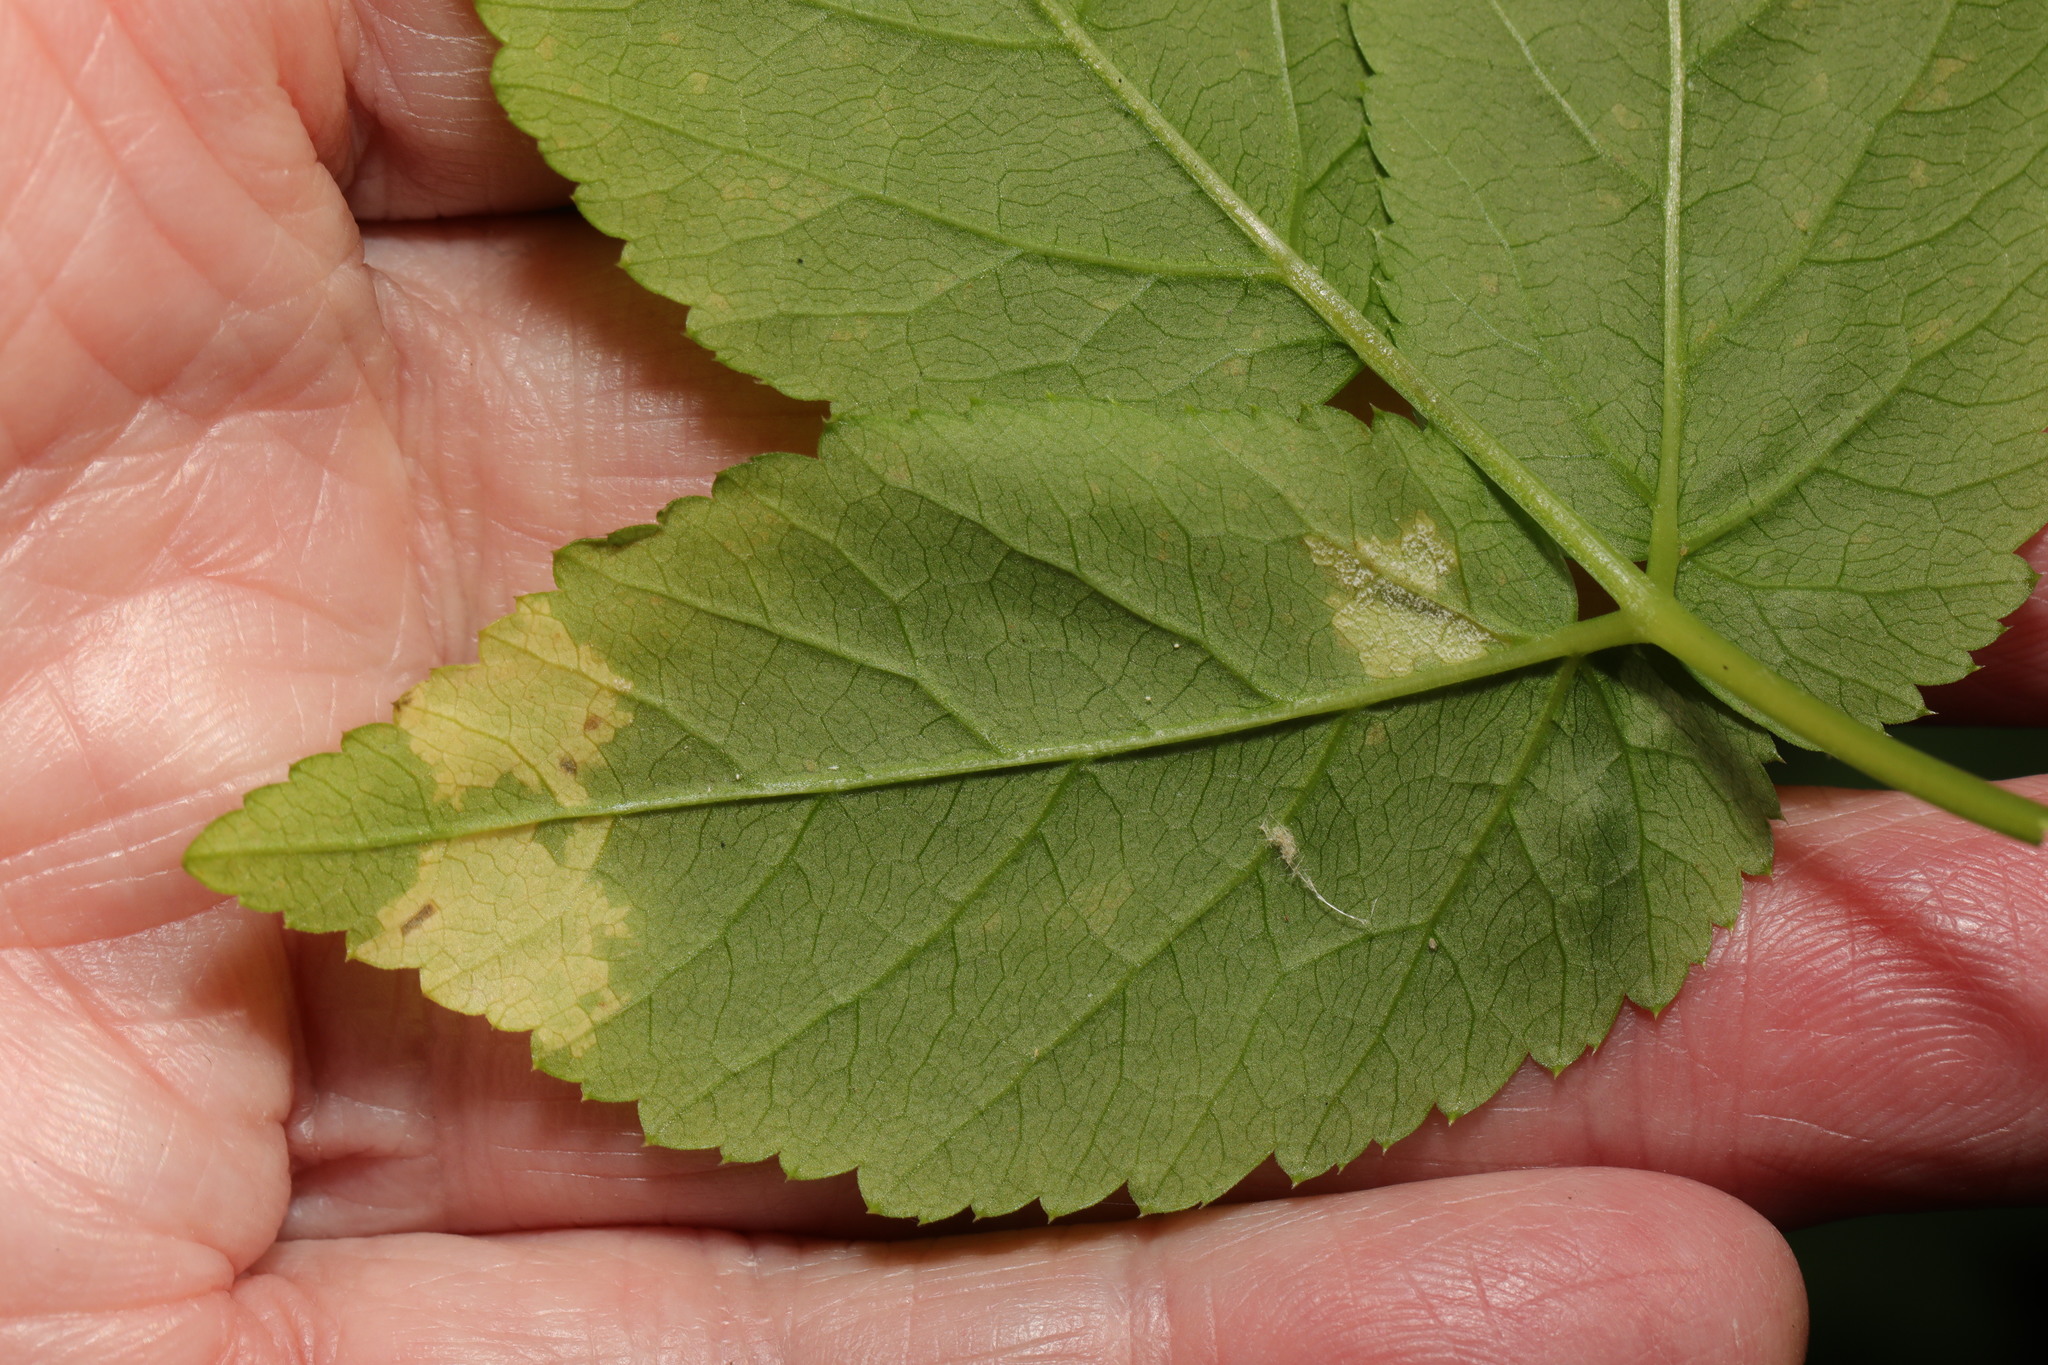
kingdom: Plantae
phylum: Tracheophyta
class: Magnoliopsida
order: Apiales
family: Apiaceae
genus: Aegopodium
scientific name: Aegopodium podagraria
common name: Ground-elder
